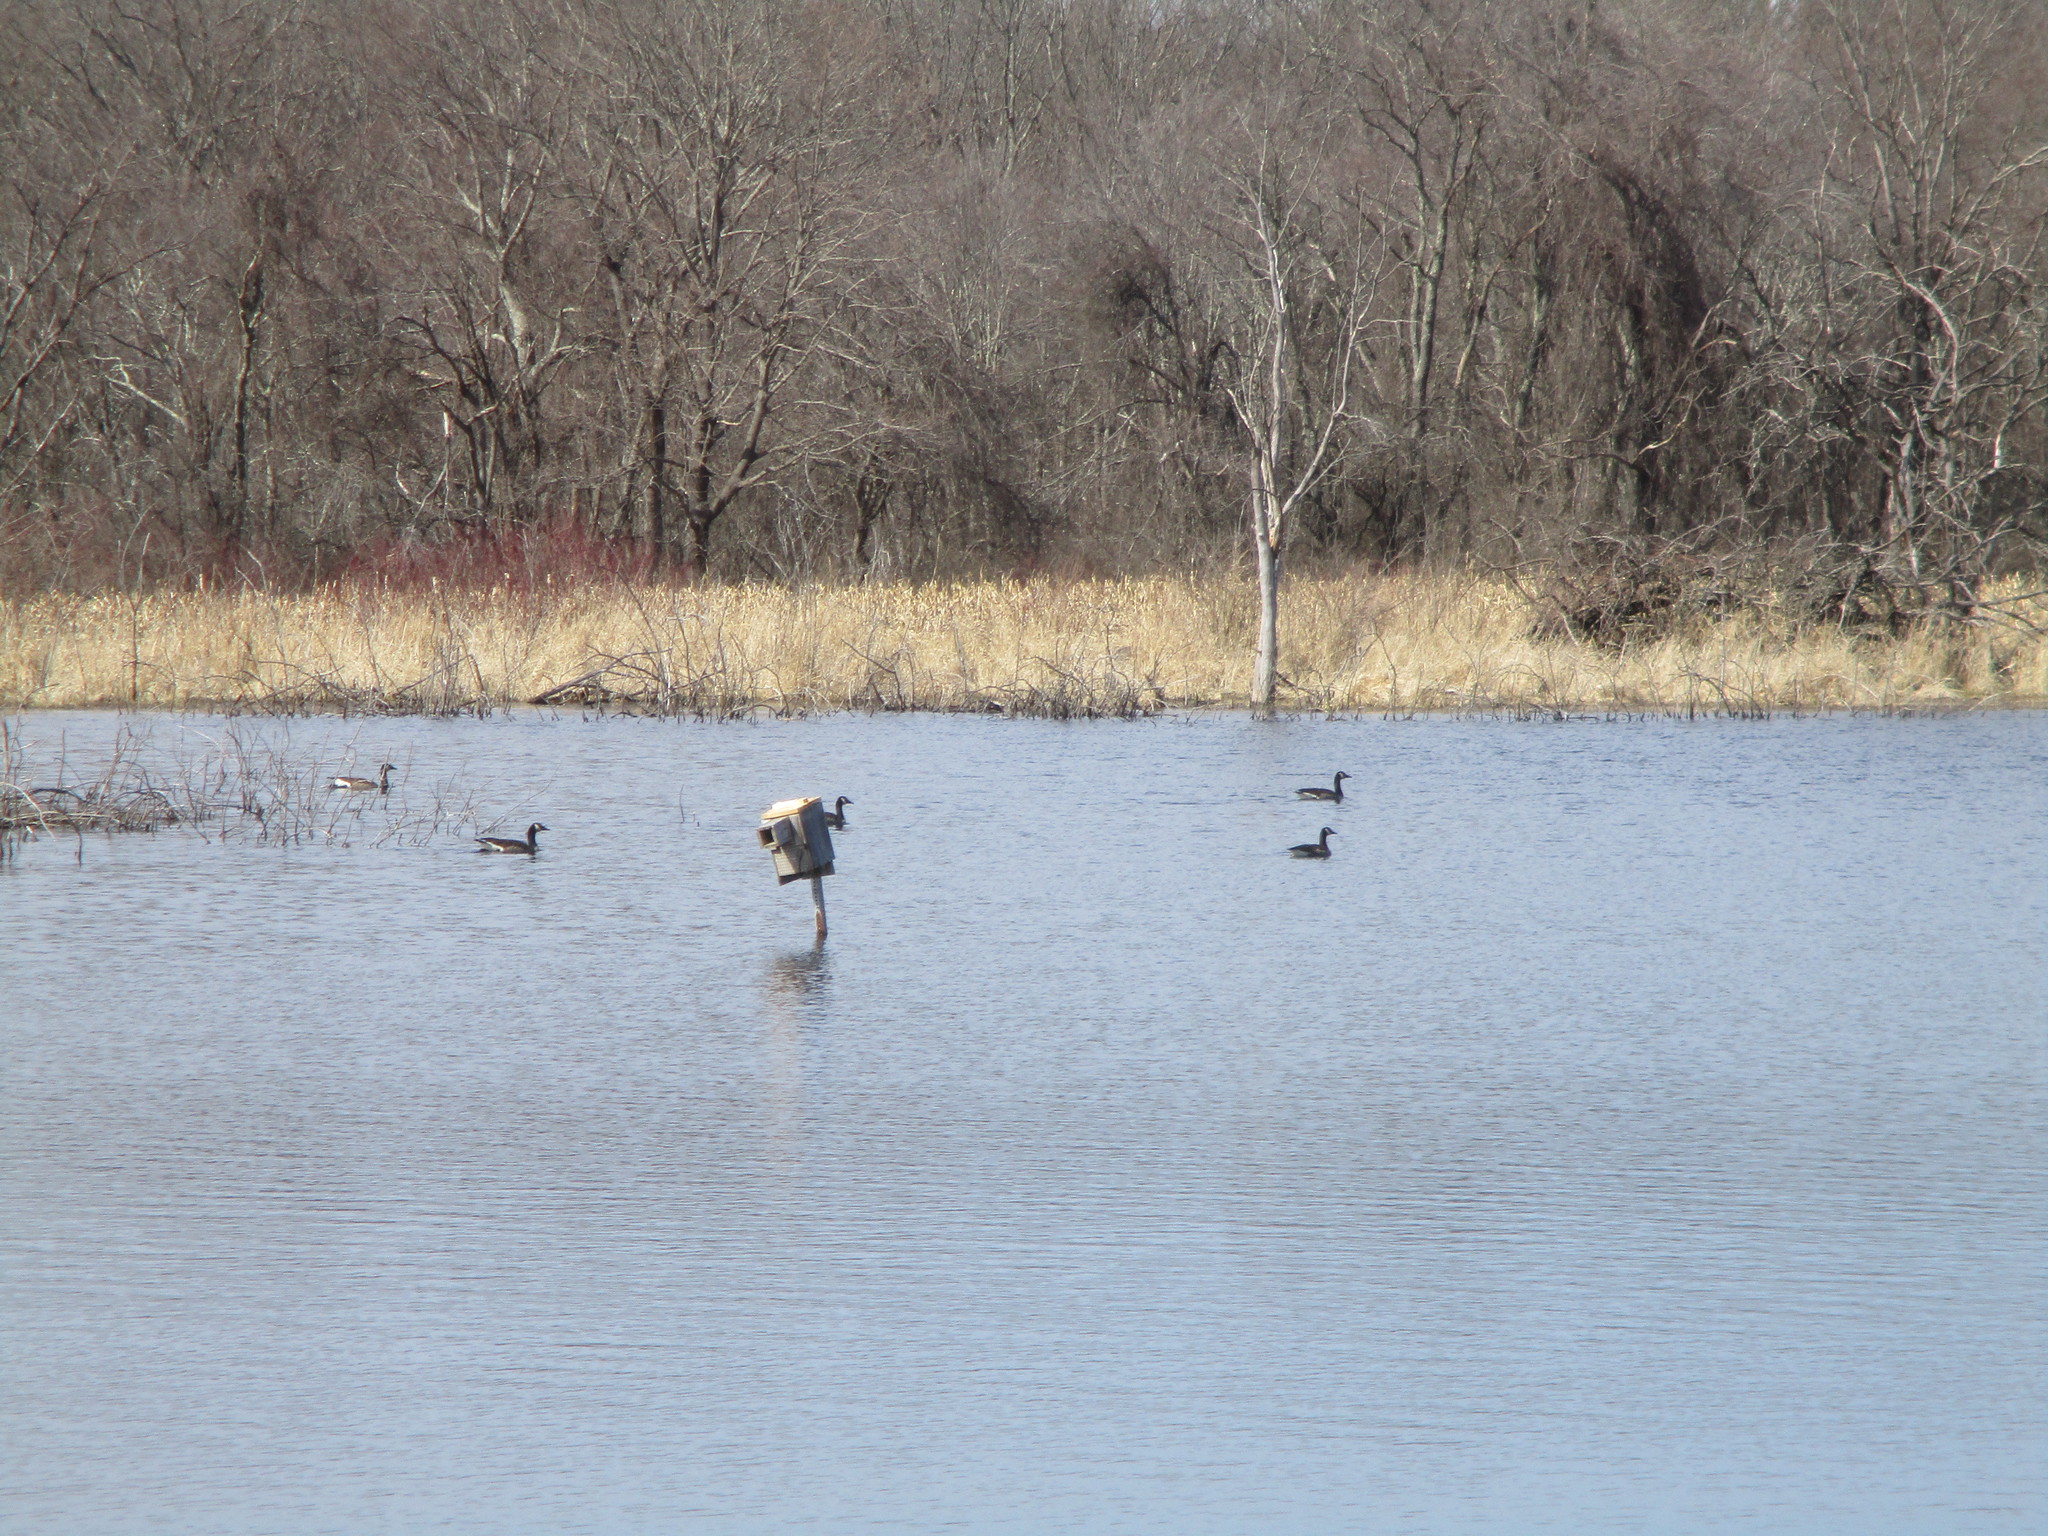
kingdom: Animalia
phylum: Chordata
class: Aves
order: Anseriformes
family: Anatidae
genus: Branta
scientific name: Branta canadensis
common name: Canada goose
